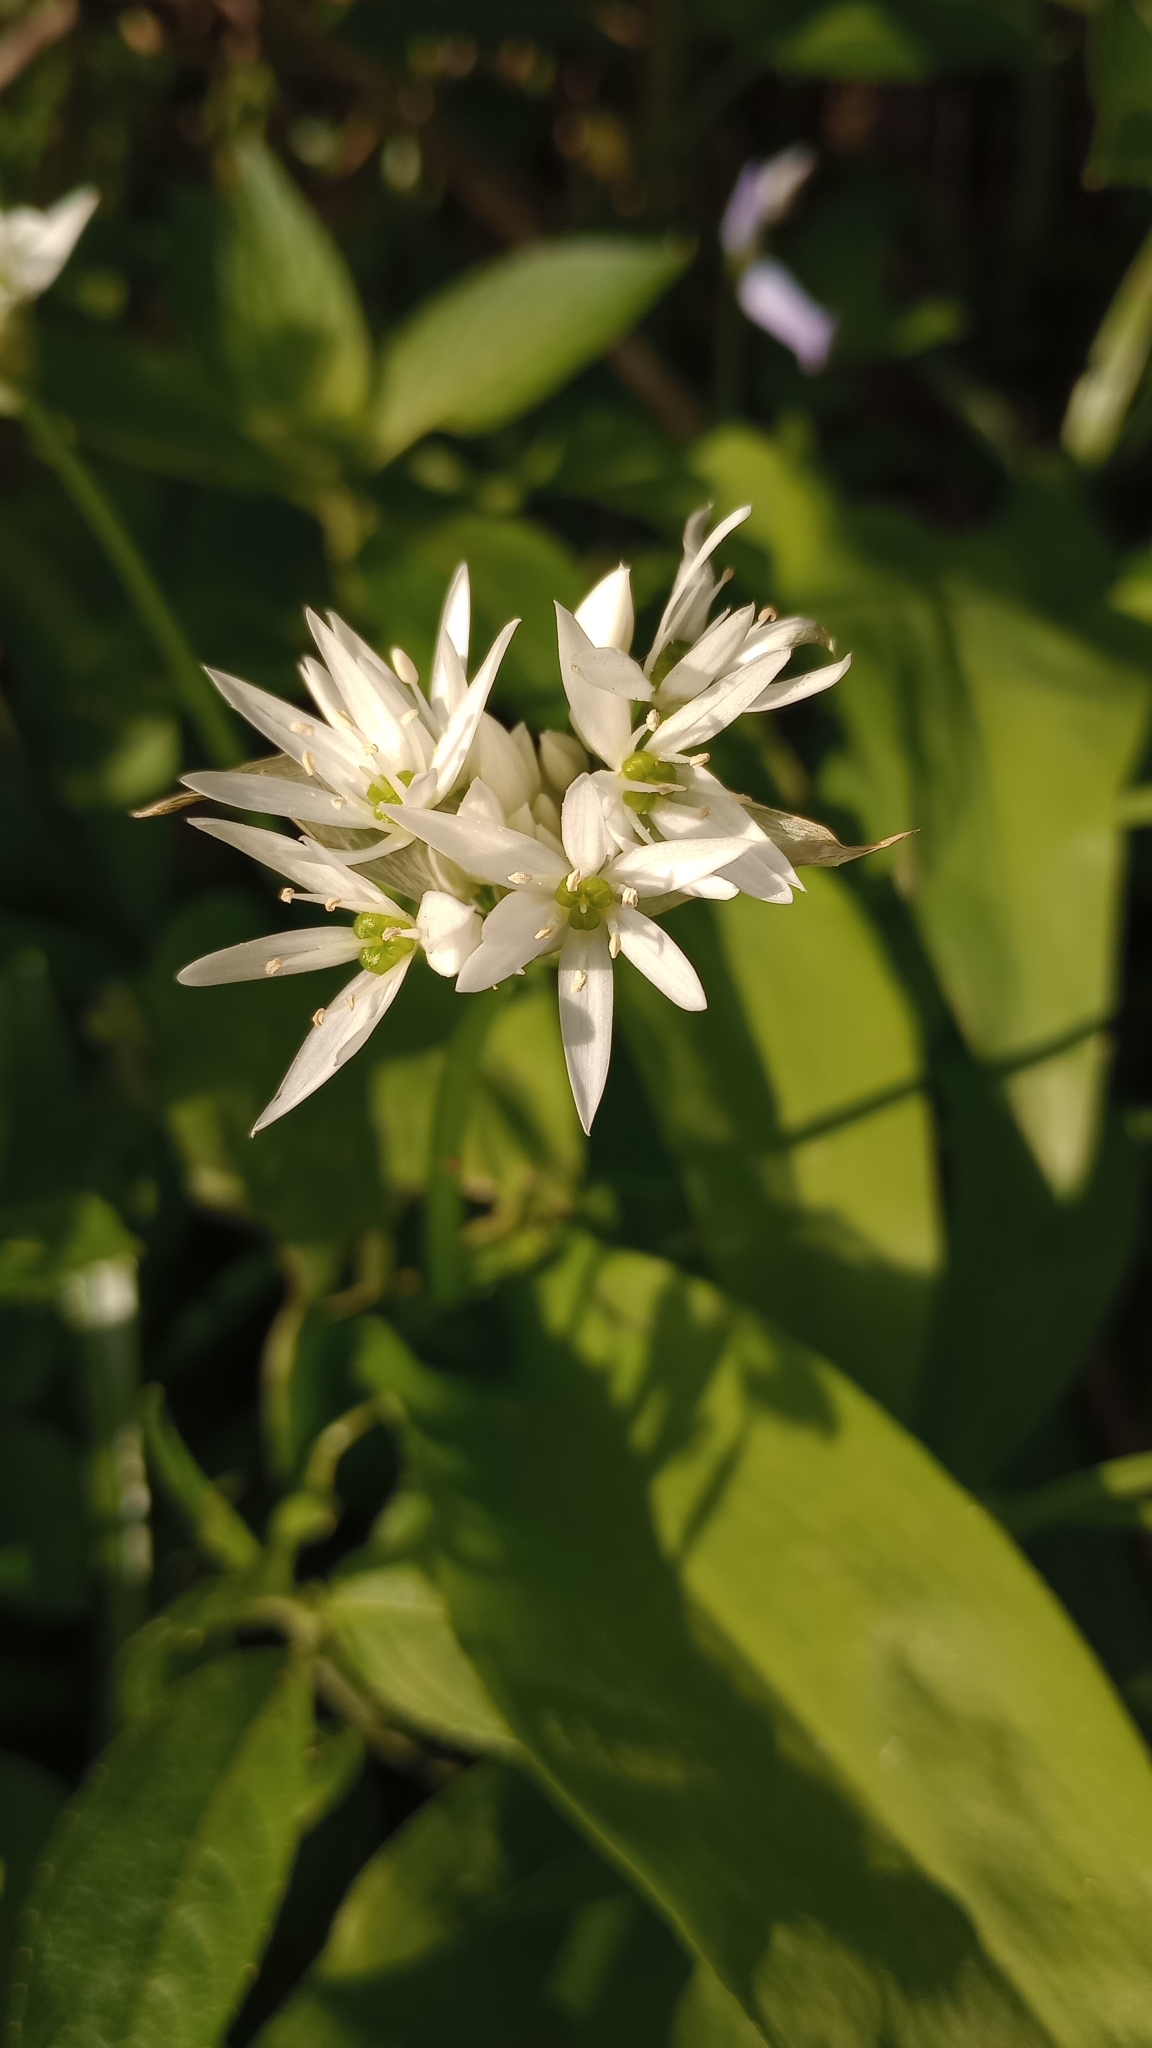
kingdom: Plantae
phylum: Tracheophyta
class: Liliopsida
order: Asparagales
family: Amaryllidaceae
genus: Allium
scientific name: Allium ursinum
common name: Ramsons
